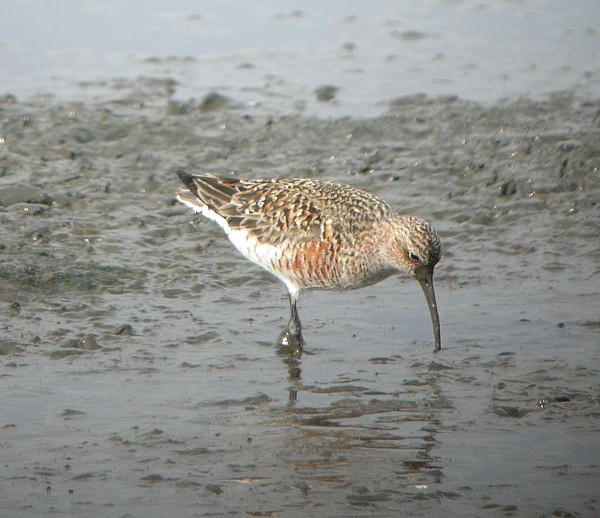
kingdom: Animalia
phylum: Chordata
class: Aves
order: Charadriiformes
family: Scolopacidae
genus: Calidris
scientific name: Calidris ferruginea
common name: Curlew sandpiper
